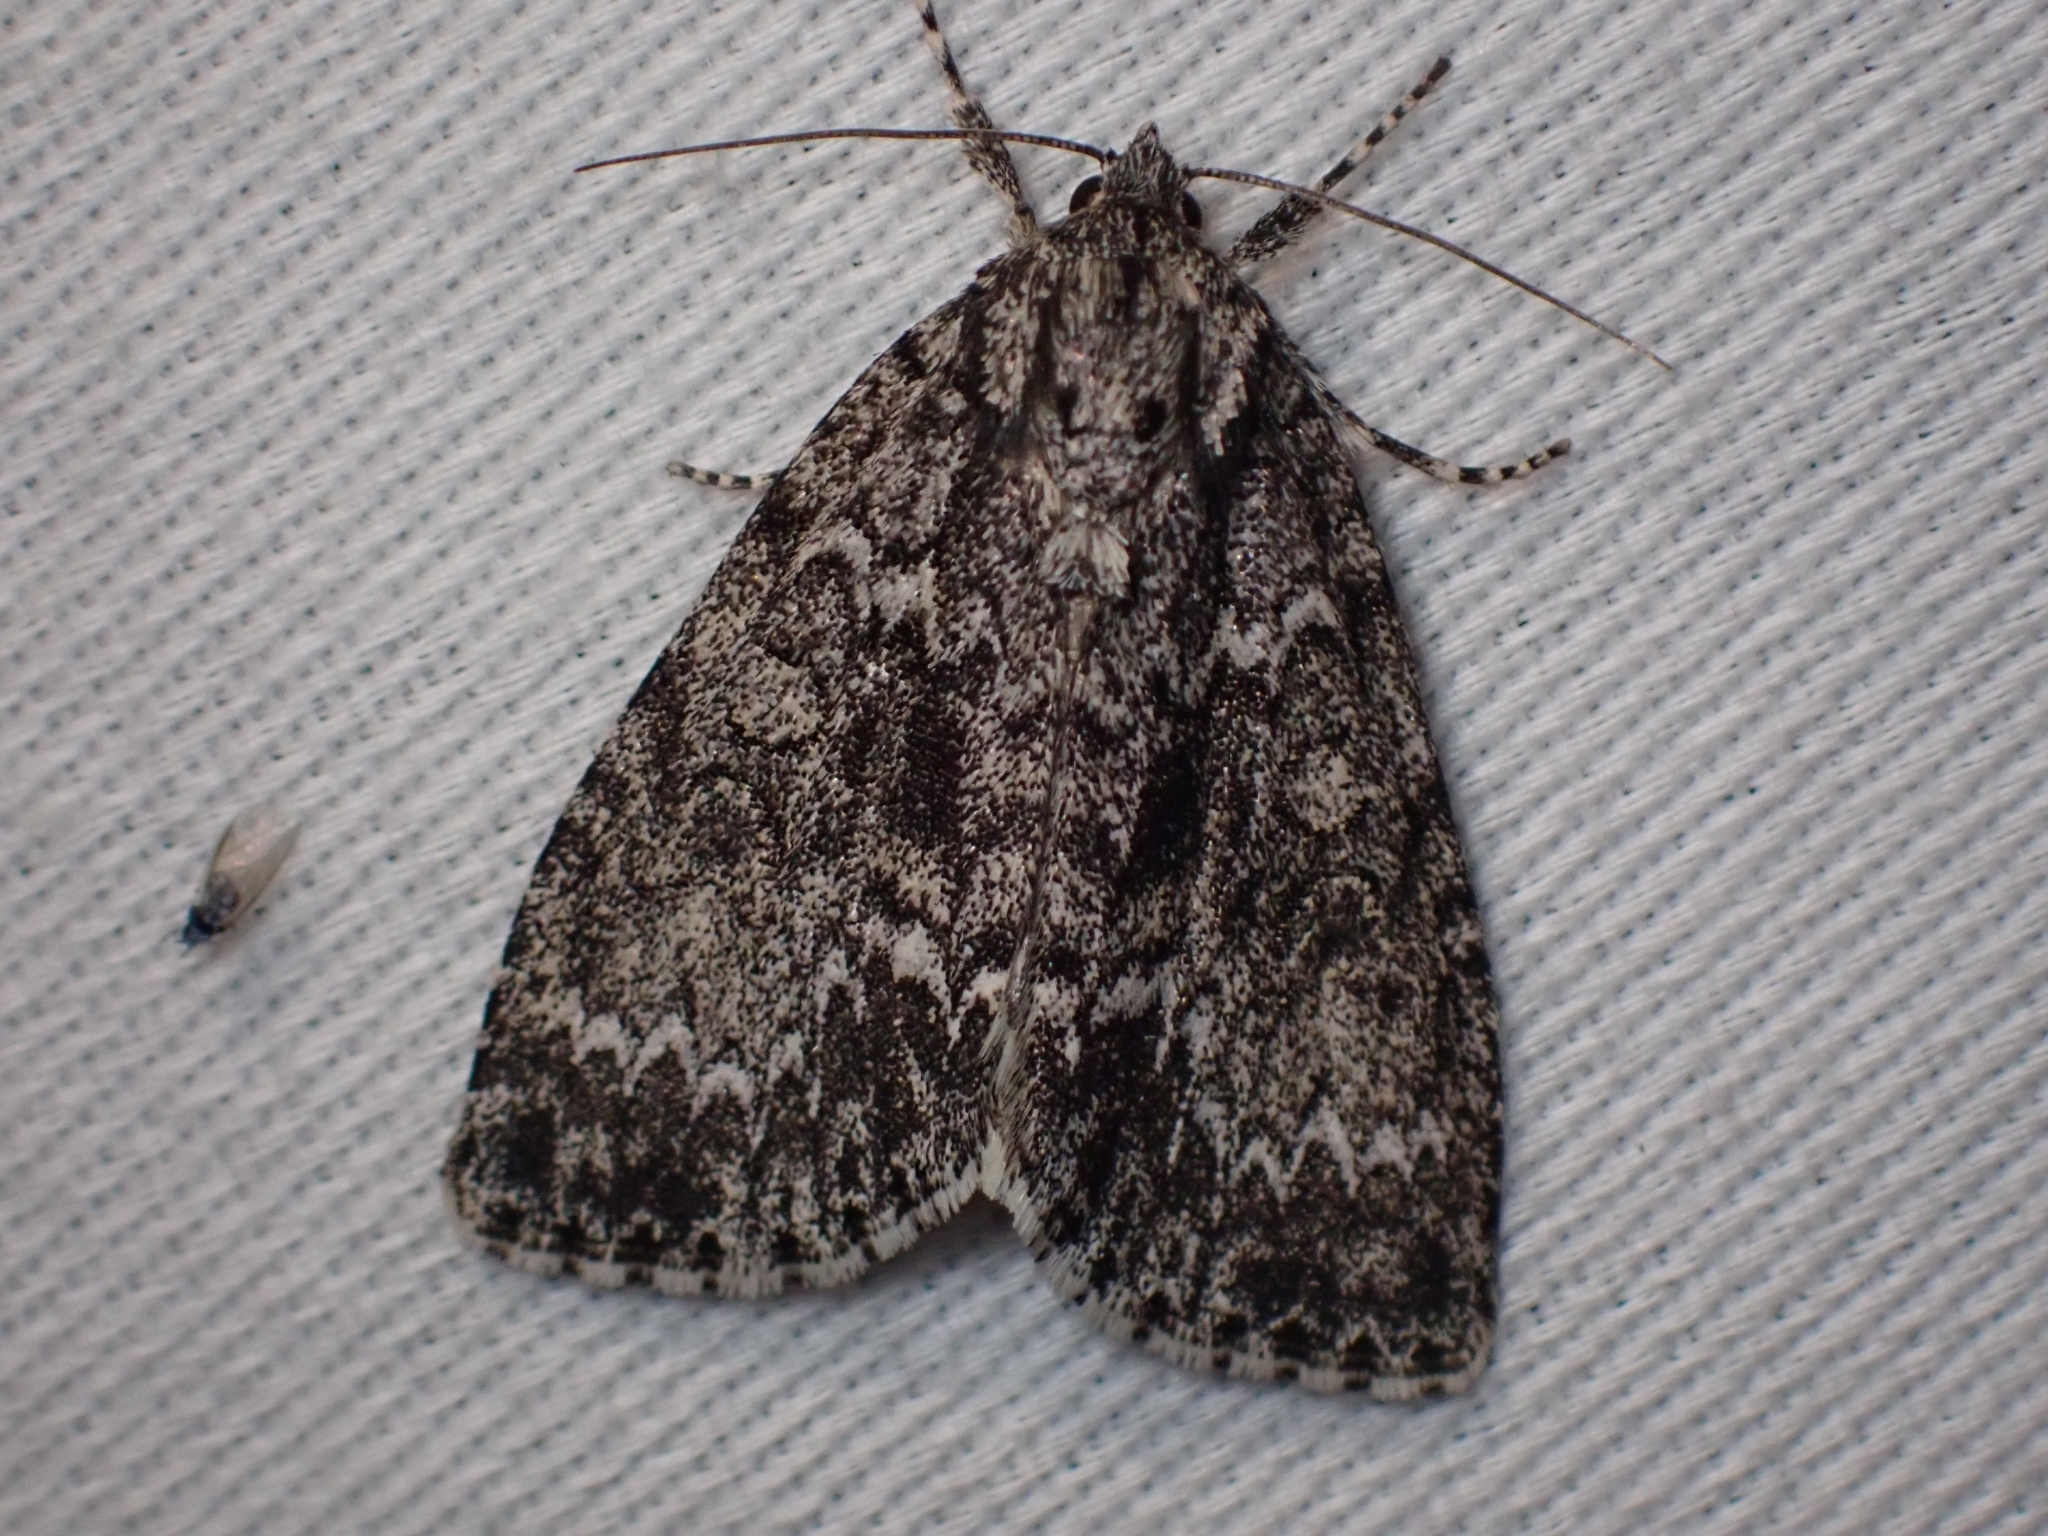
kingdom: Animalia
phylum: Arthropoda
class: Insecta
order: Lepidoptera
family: Noctuidae
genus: Acronicta
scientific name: Acronicta fragilis
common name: Fragile dagger
